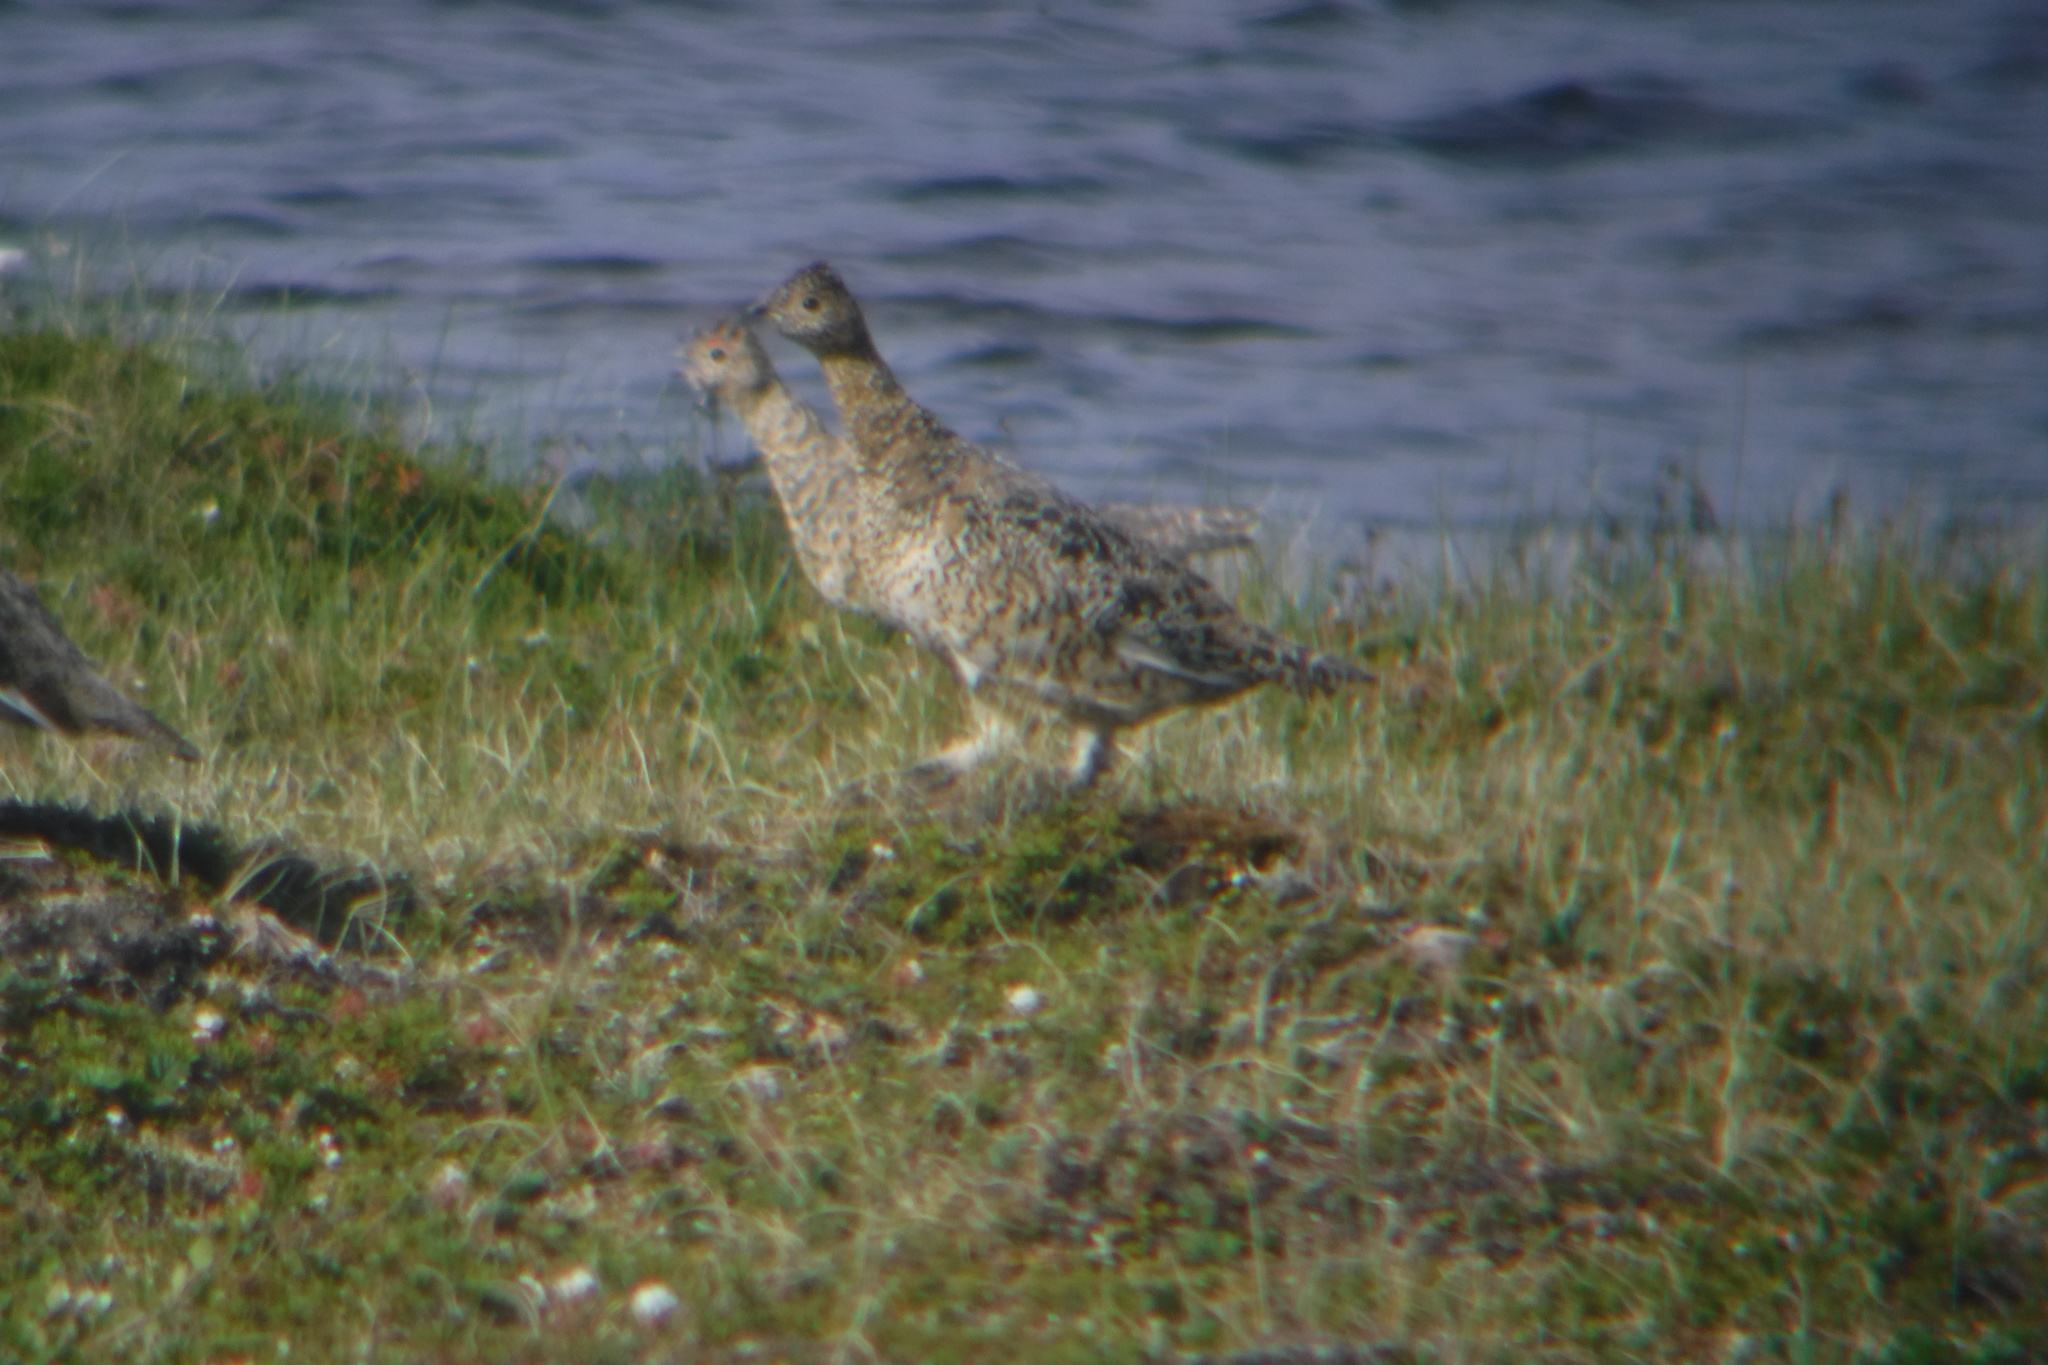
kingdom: Animalia
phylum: Chordata
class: Aves
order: Galliformes
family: Phasianidae
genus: Lagopus
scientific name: Lagopus muta
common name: Rock ptarmigan
